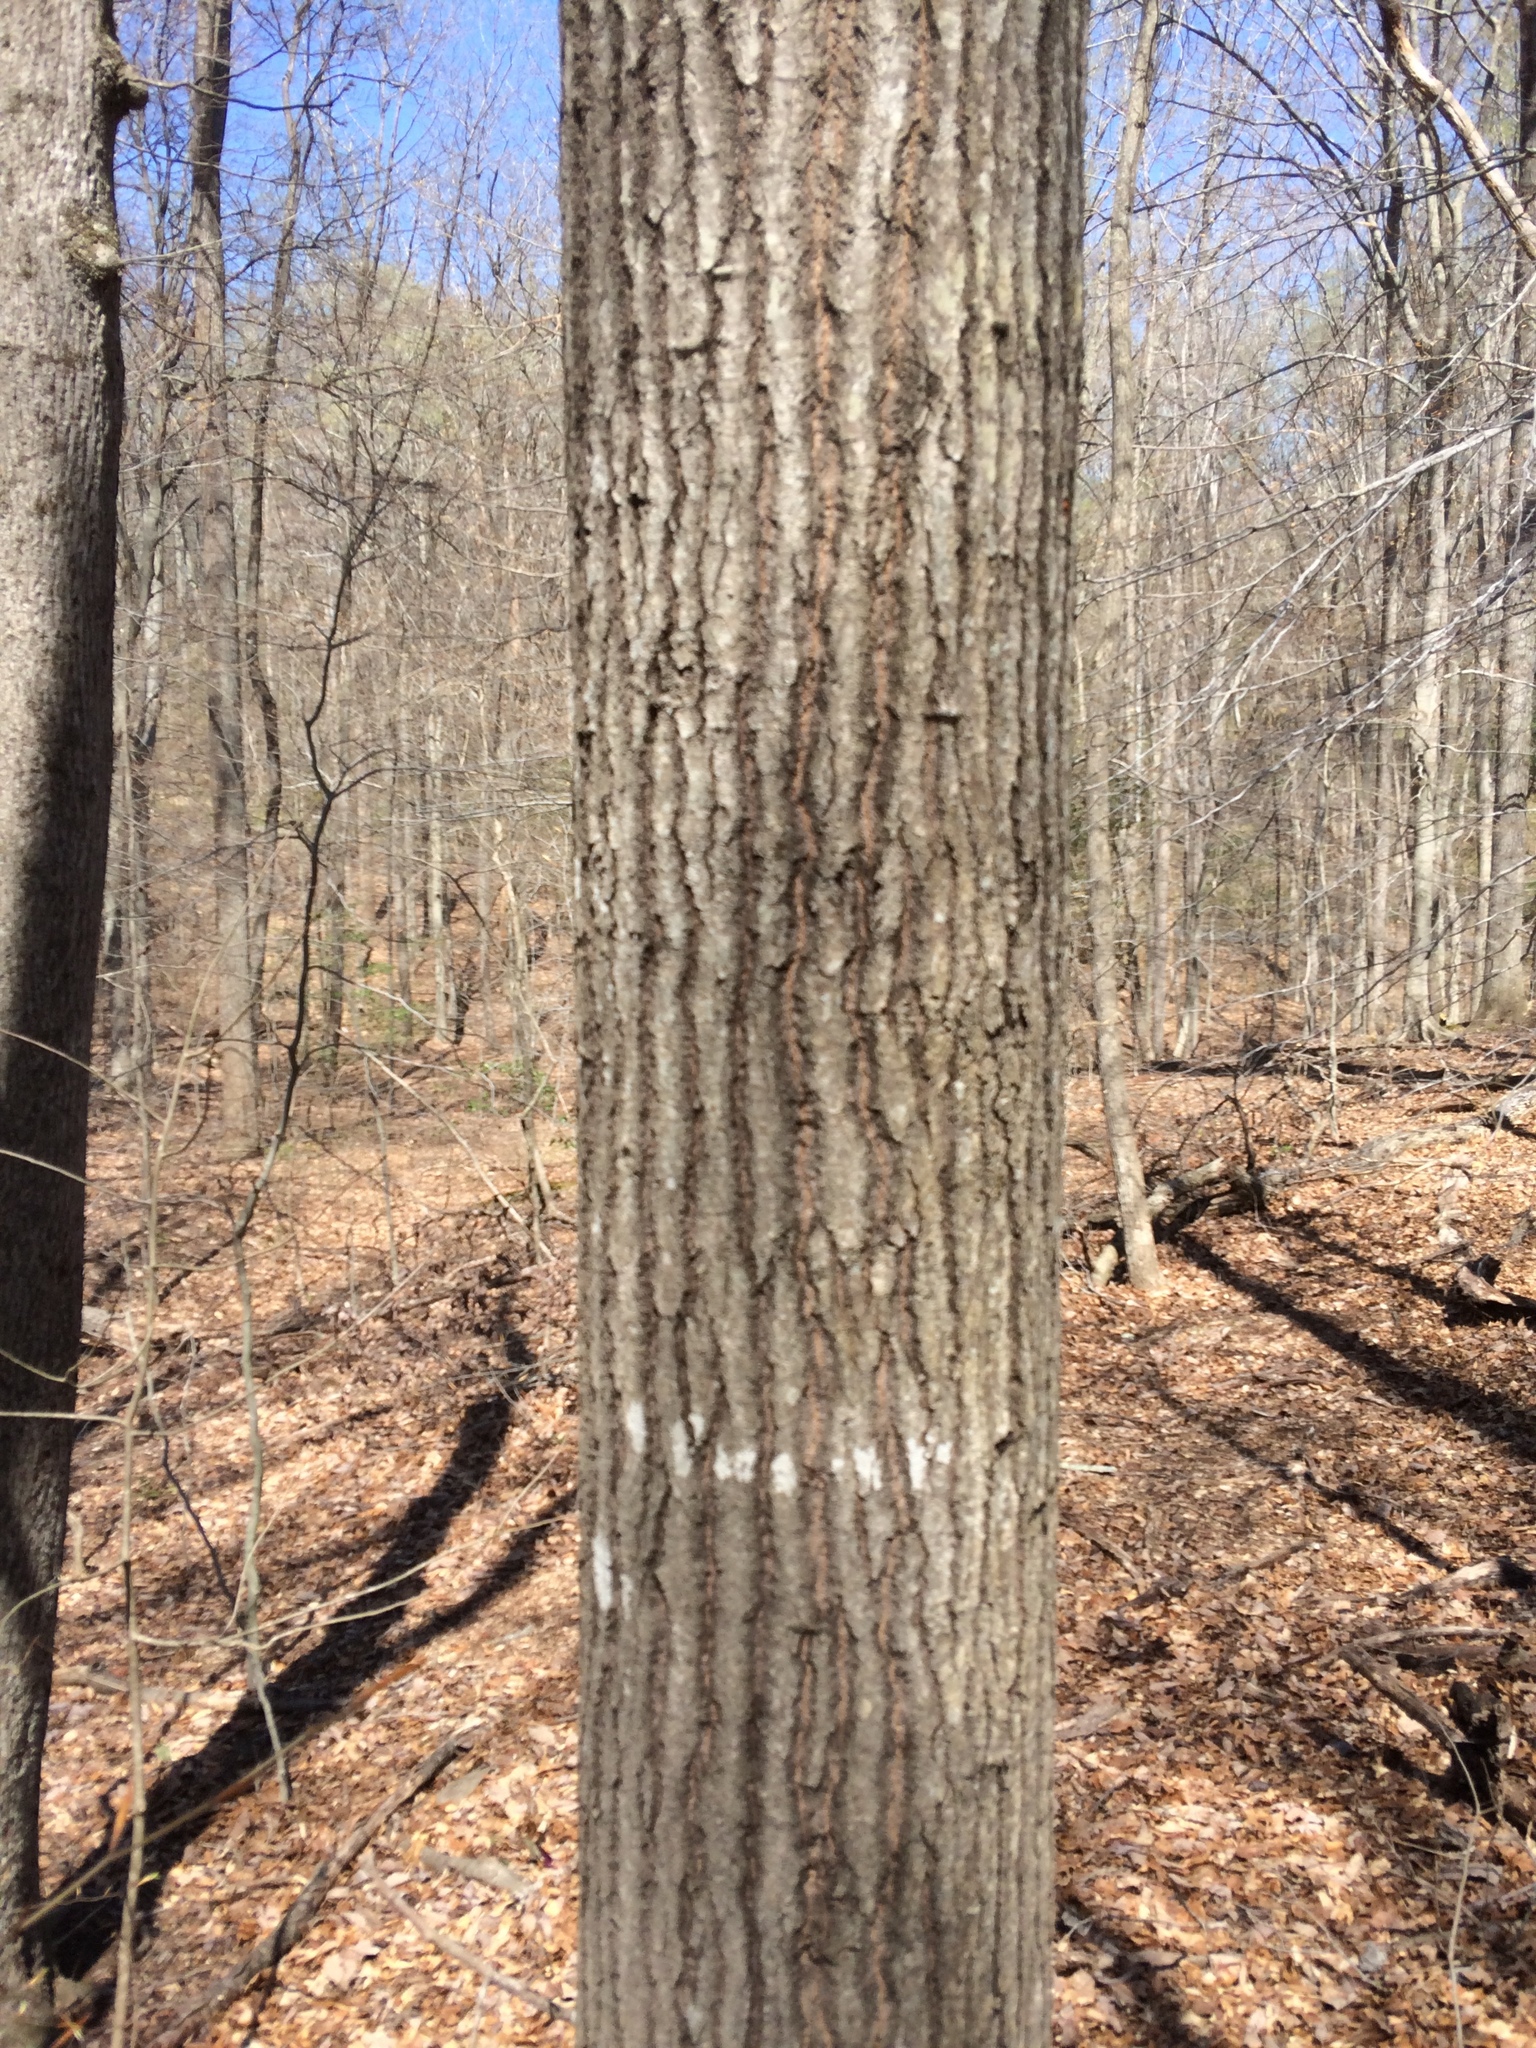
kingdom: Plantae
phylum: Tracheophyta
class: Magnoliopsida
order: Fagales
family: Fagaceae
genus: Quercus
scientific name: Quercus rubra
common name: Red oak
